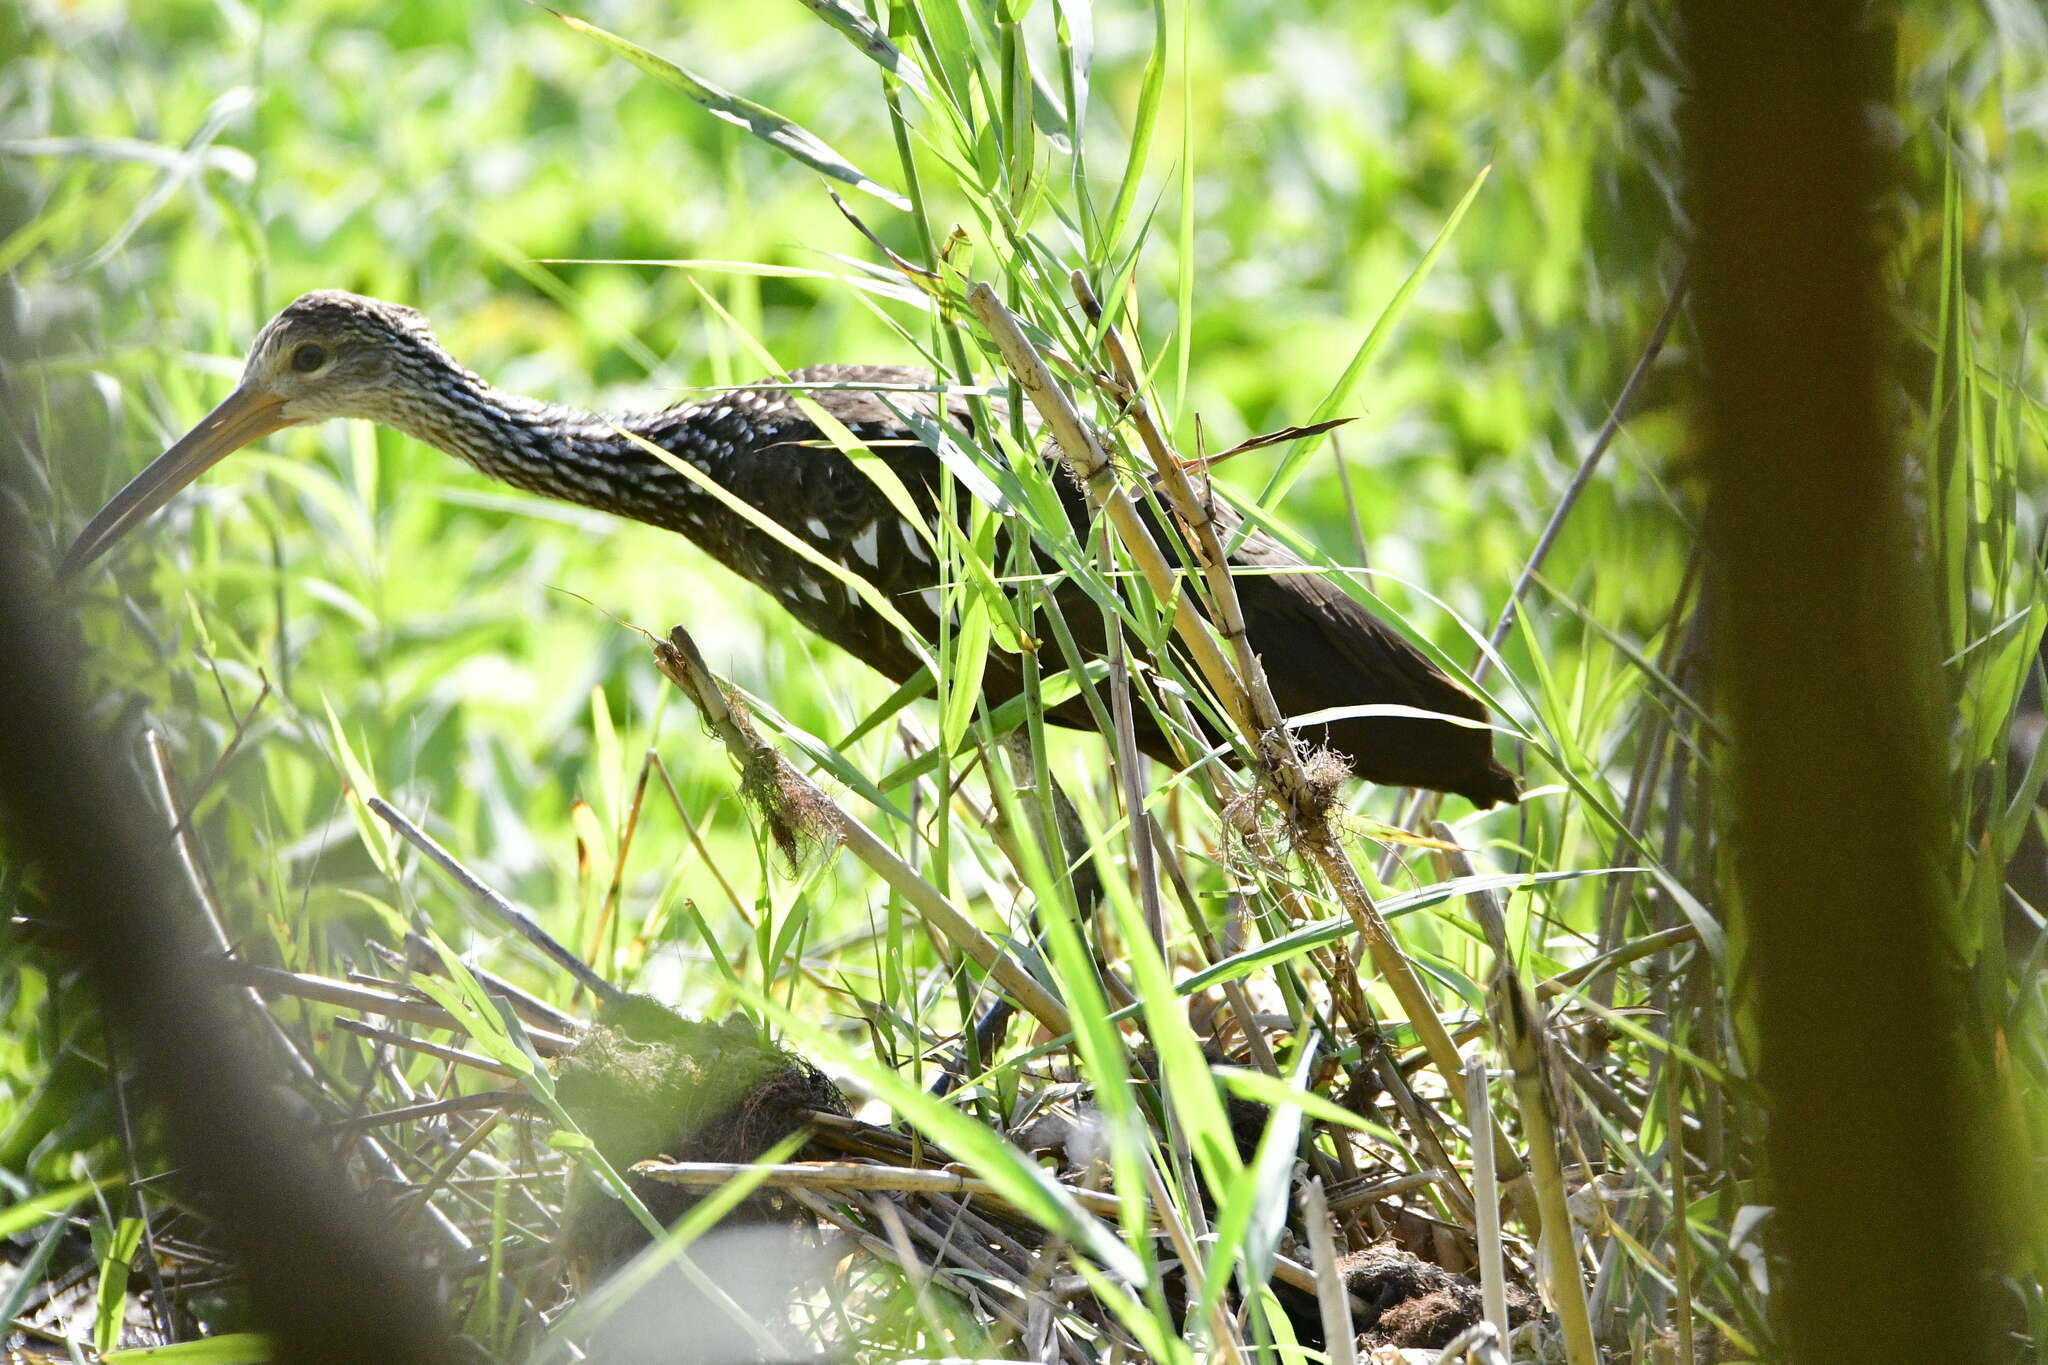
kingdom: Animalia
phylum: Chordata
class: Aves
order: Gruiformes
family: Aramidae
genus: Aramus
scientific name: Aramus guarauna
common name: Limpkin
